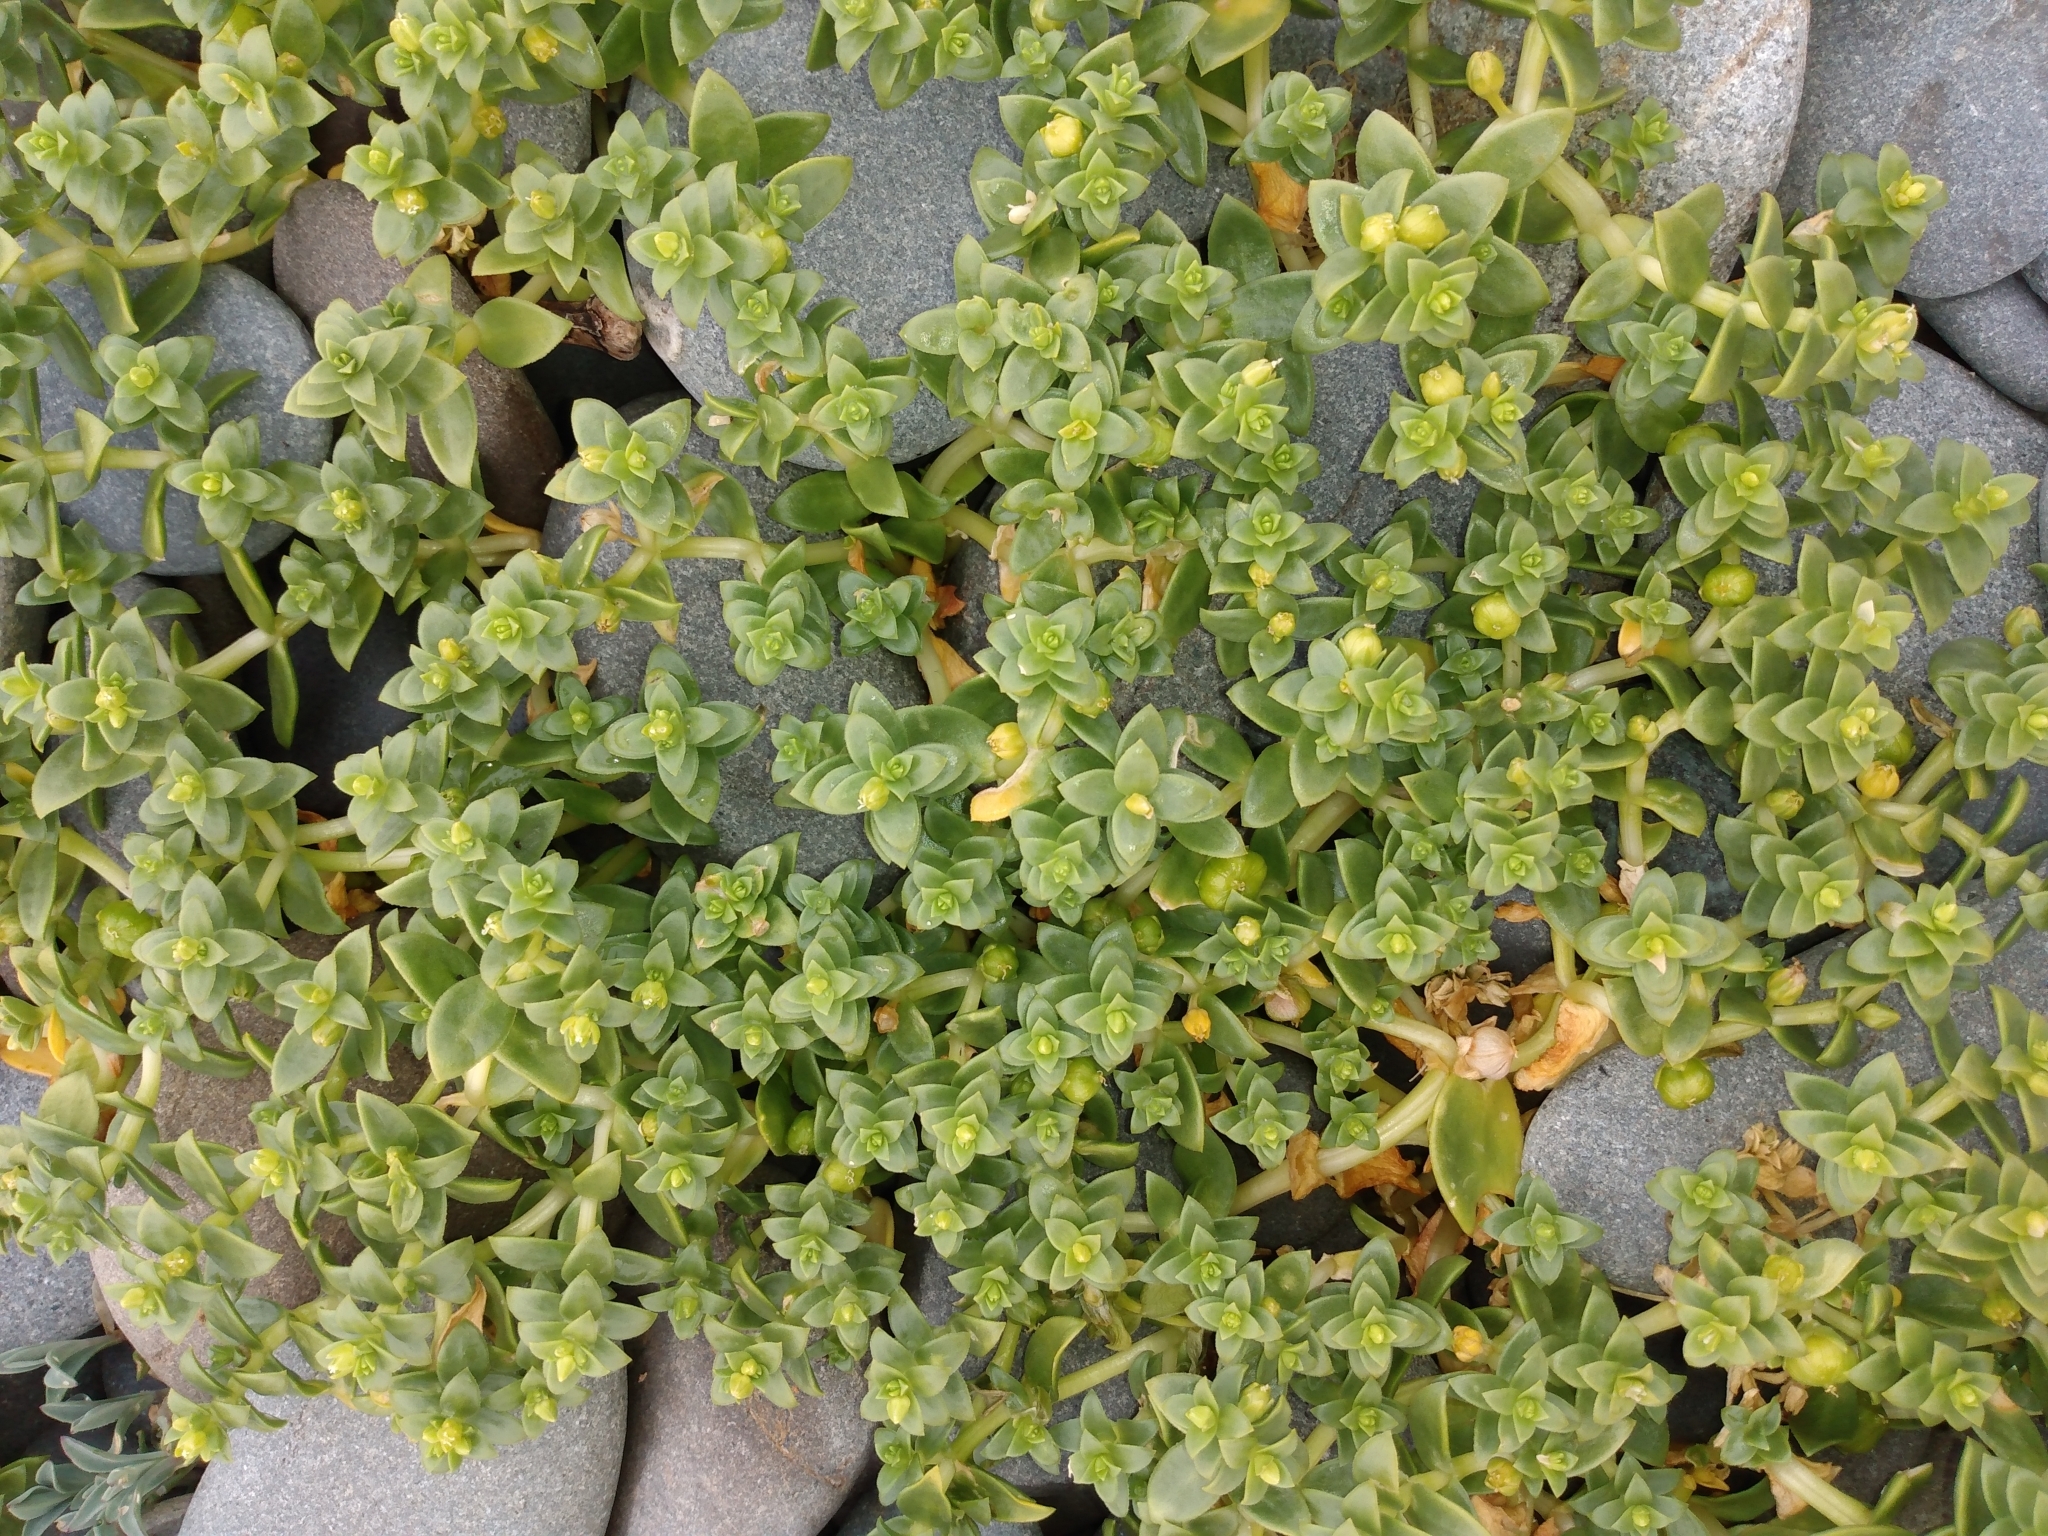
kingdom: Plantae
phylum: Tracheophyta
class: Magnoliopsida
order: Caryophyllales
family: Caryophyllaceae
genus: Honckenya
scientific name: Honckenya peploides
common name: Sea sandwort
